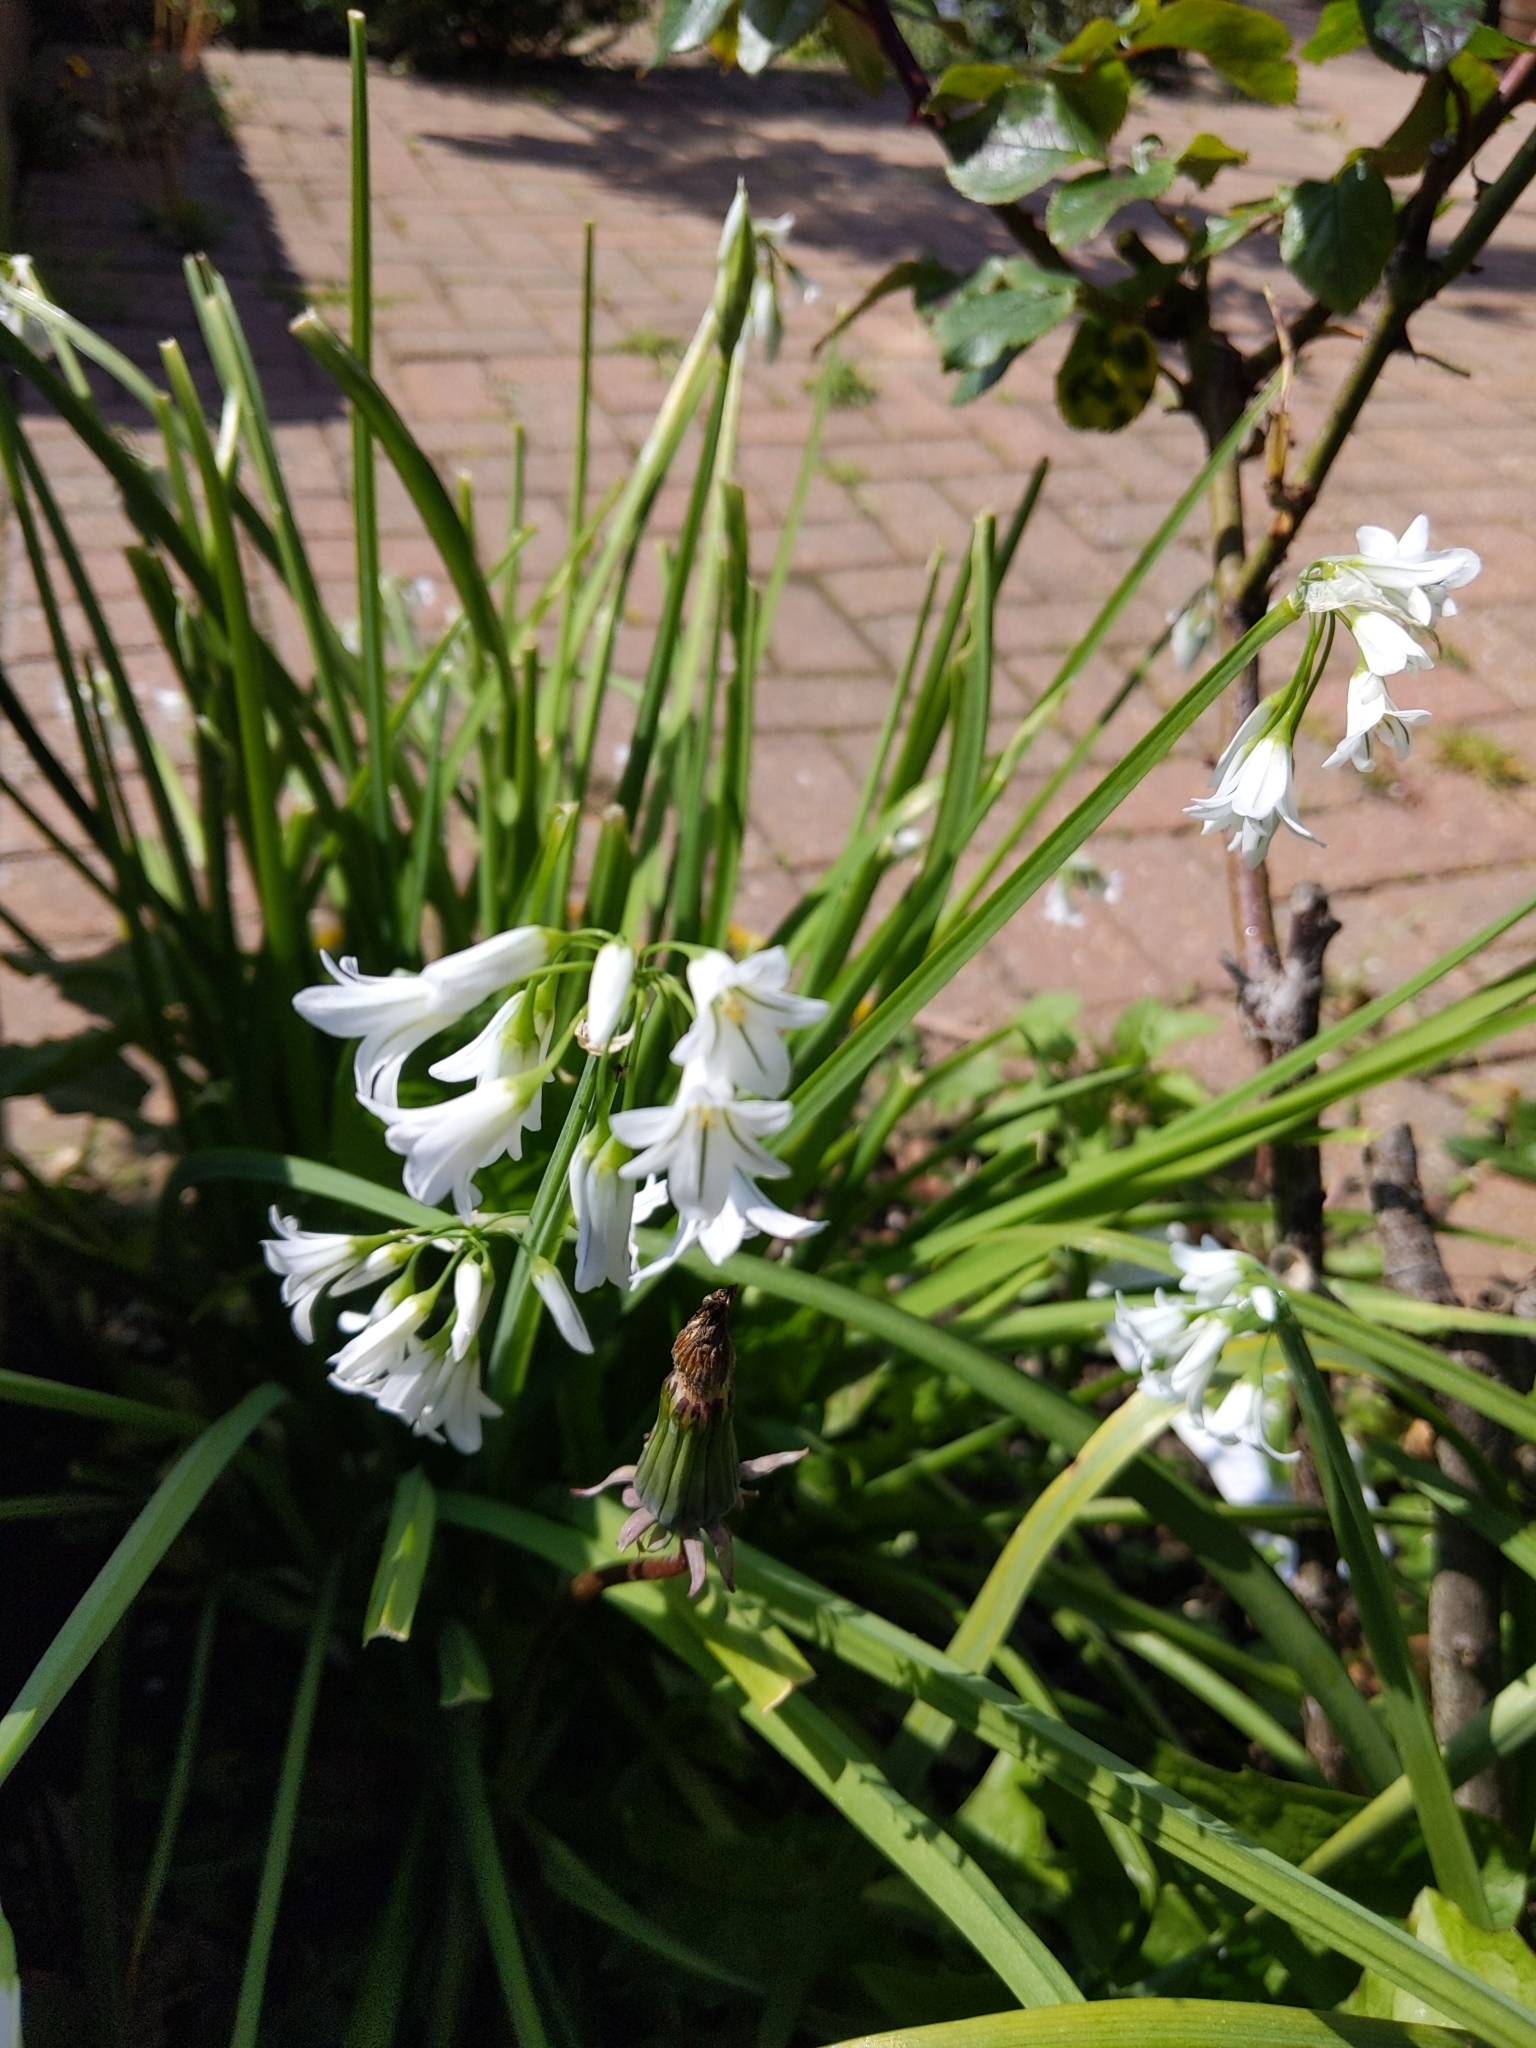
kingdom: Plantae
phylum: Tracheophyta
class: Liliopsida
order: Asparagales
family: Amaryllidaceae
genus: Allium
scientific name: Allium triquetrum
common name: Three-cornered garlic
